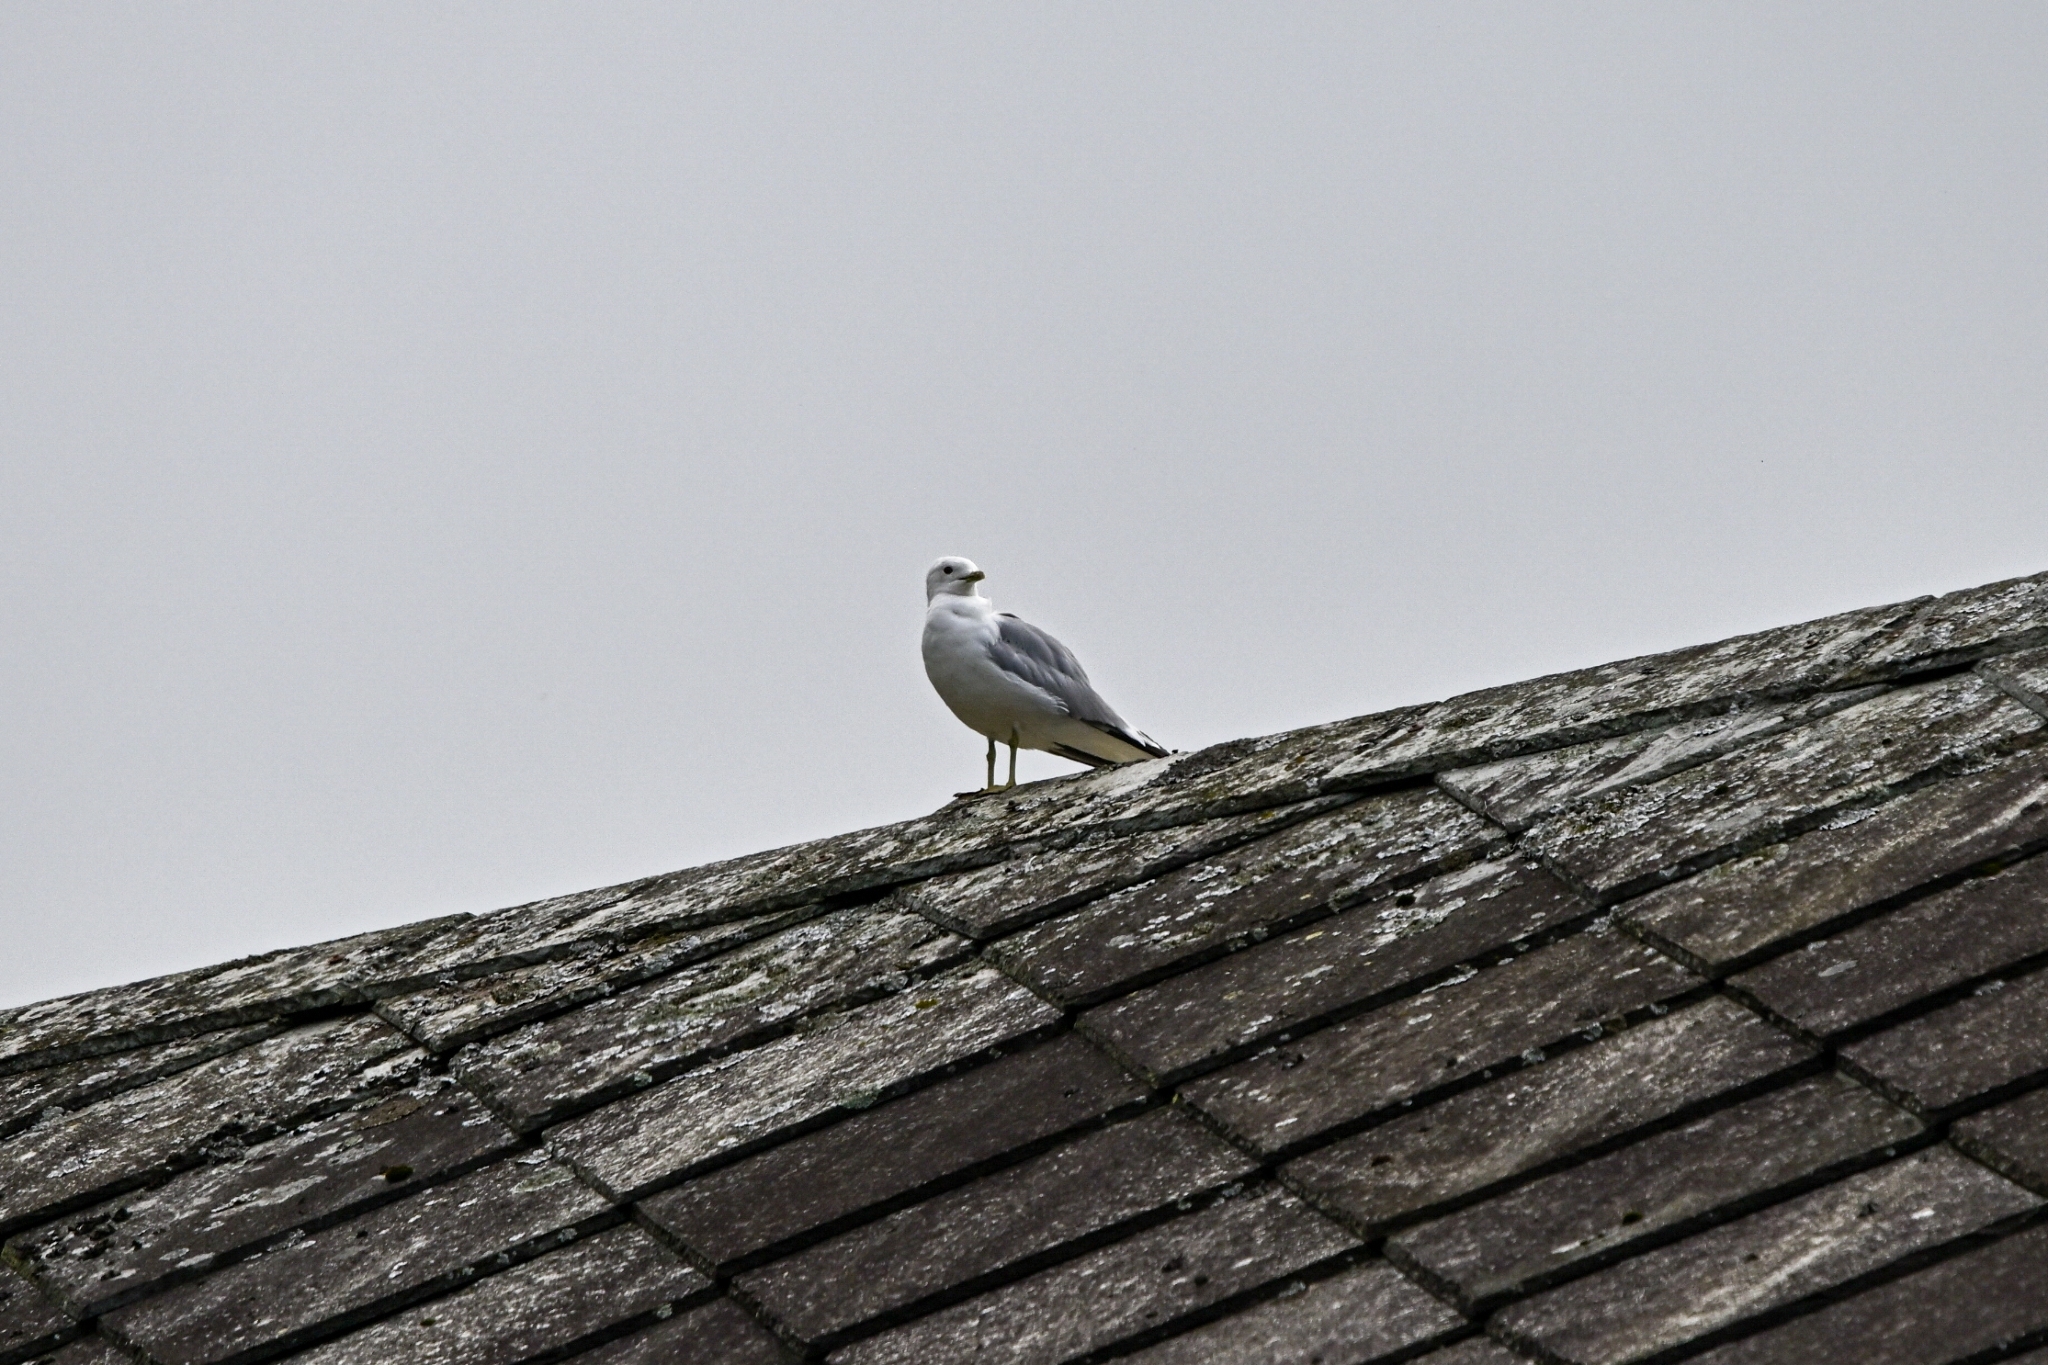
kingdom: Animalia
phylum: Chordata
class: Aves
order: Charadriiformes
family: Laridae
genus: Larus
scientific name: Larus canus
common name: Mew gull
